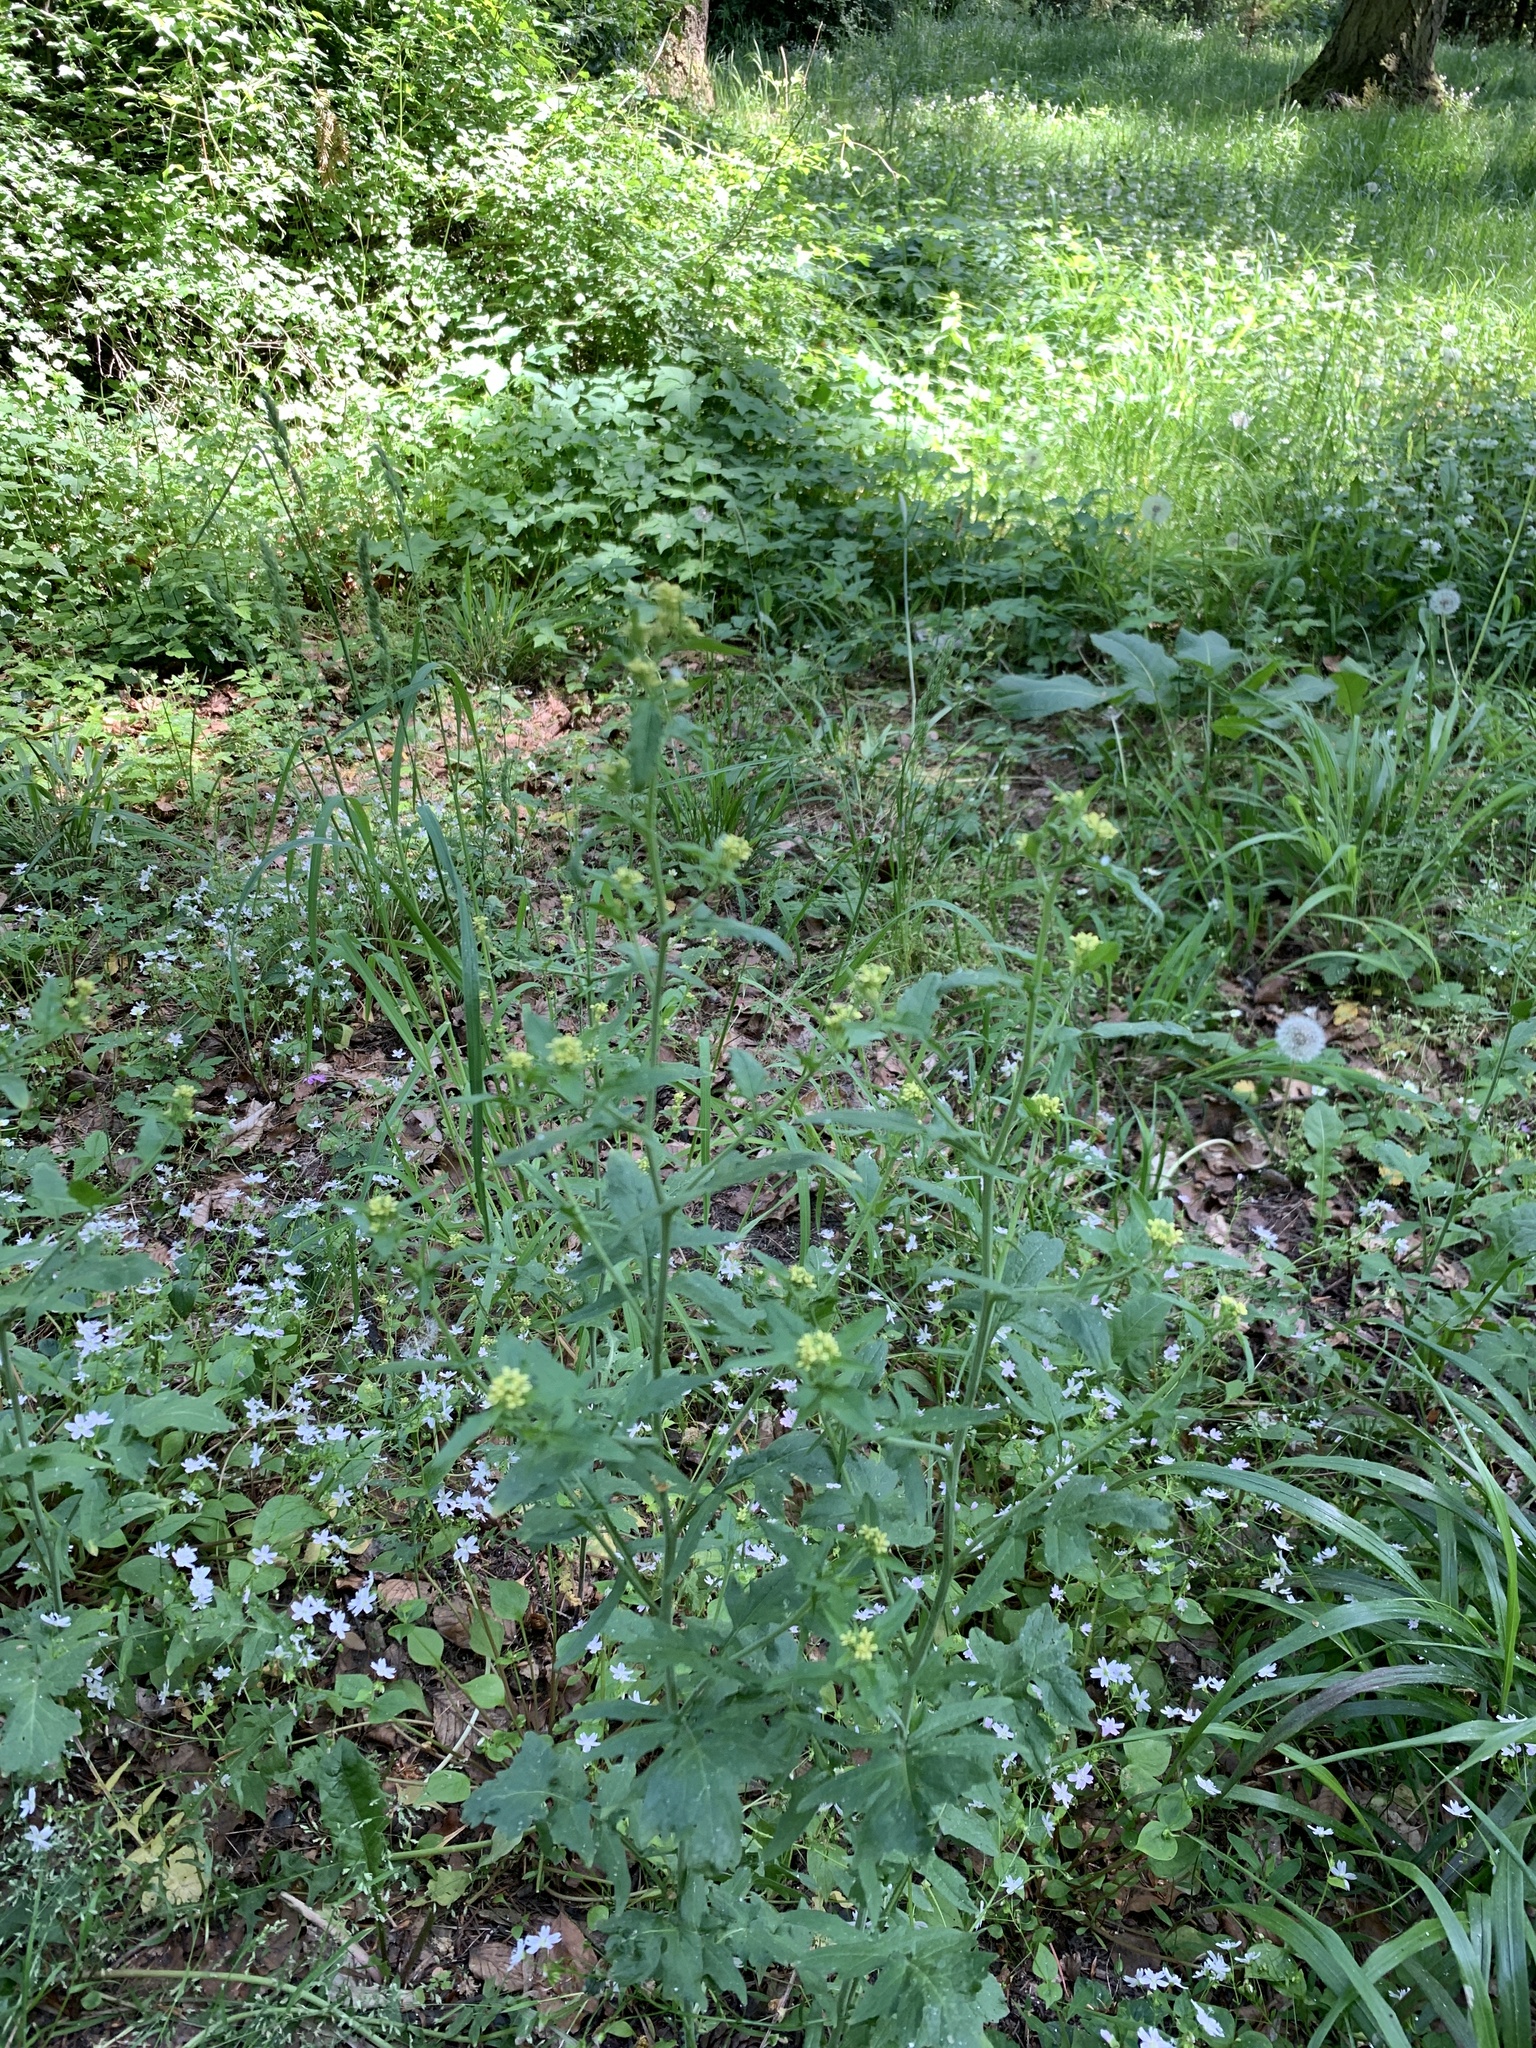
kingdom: Plantae
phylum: Tracheophyta
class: Magnoliopsida
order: Brassicales
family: Brassicaceae
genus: Sisymbrium
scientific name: Sisymbrium officinale
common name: Hedge mustard
